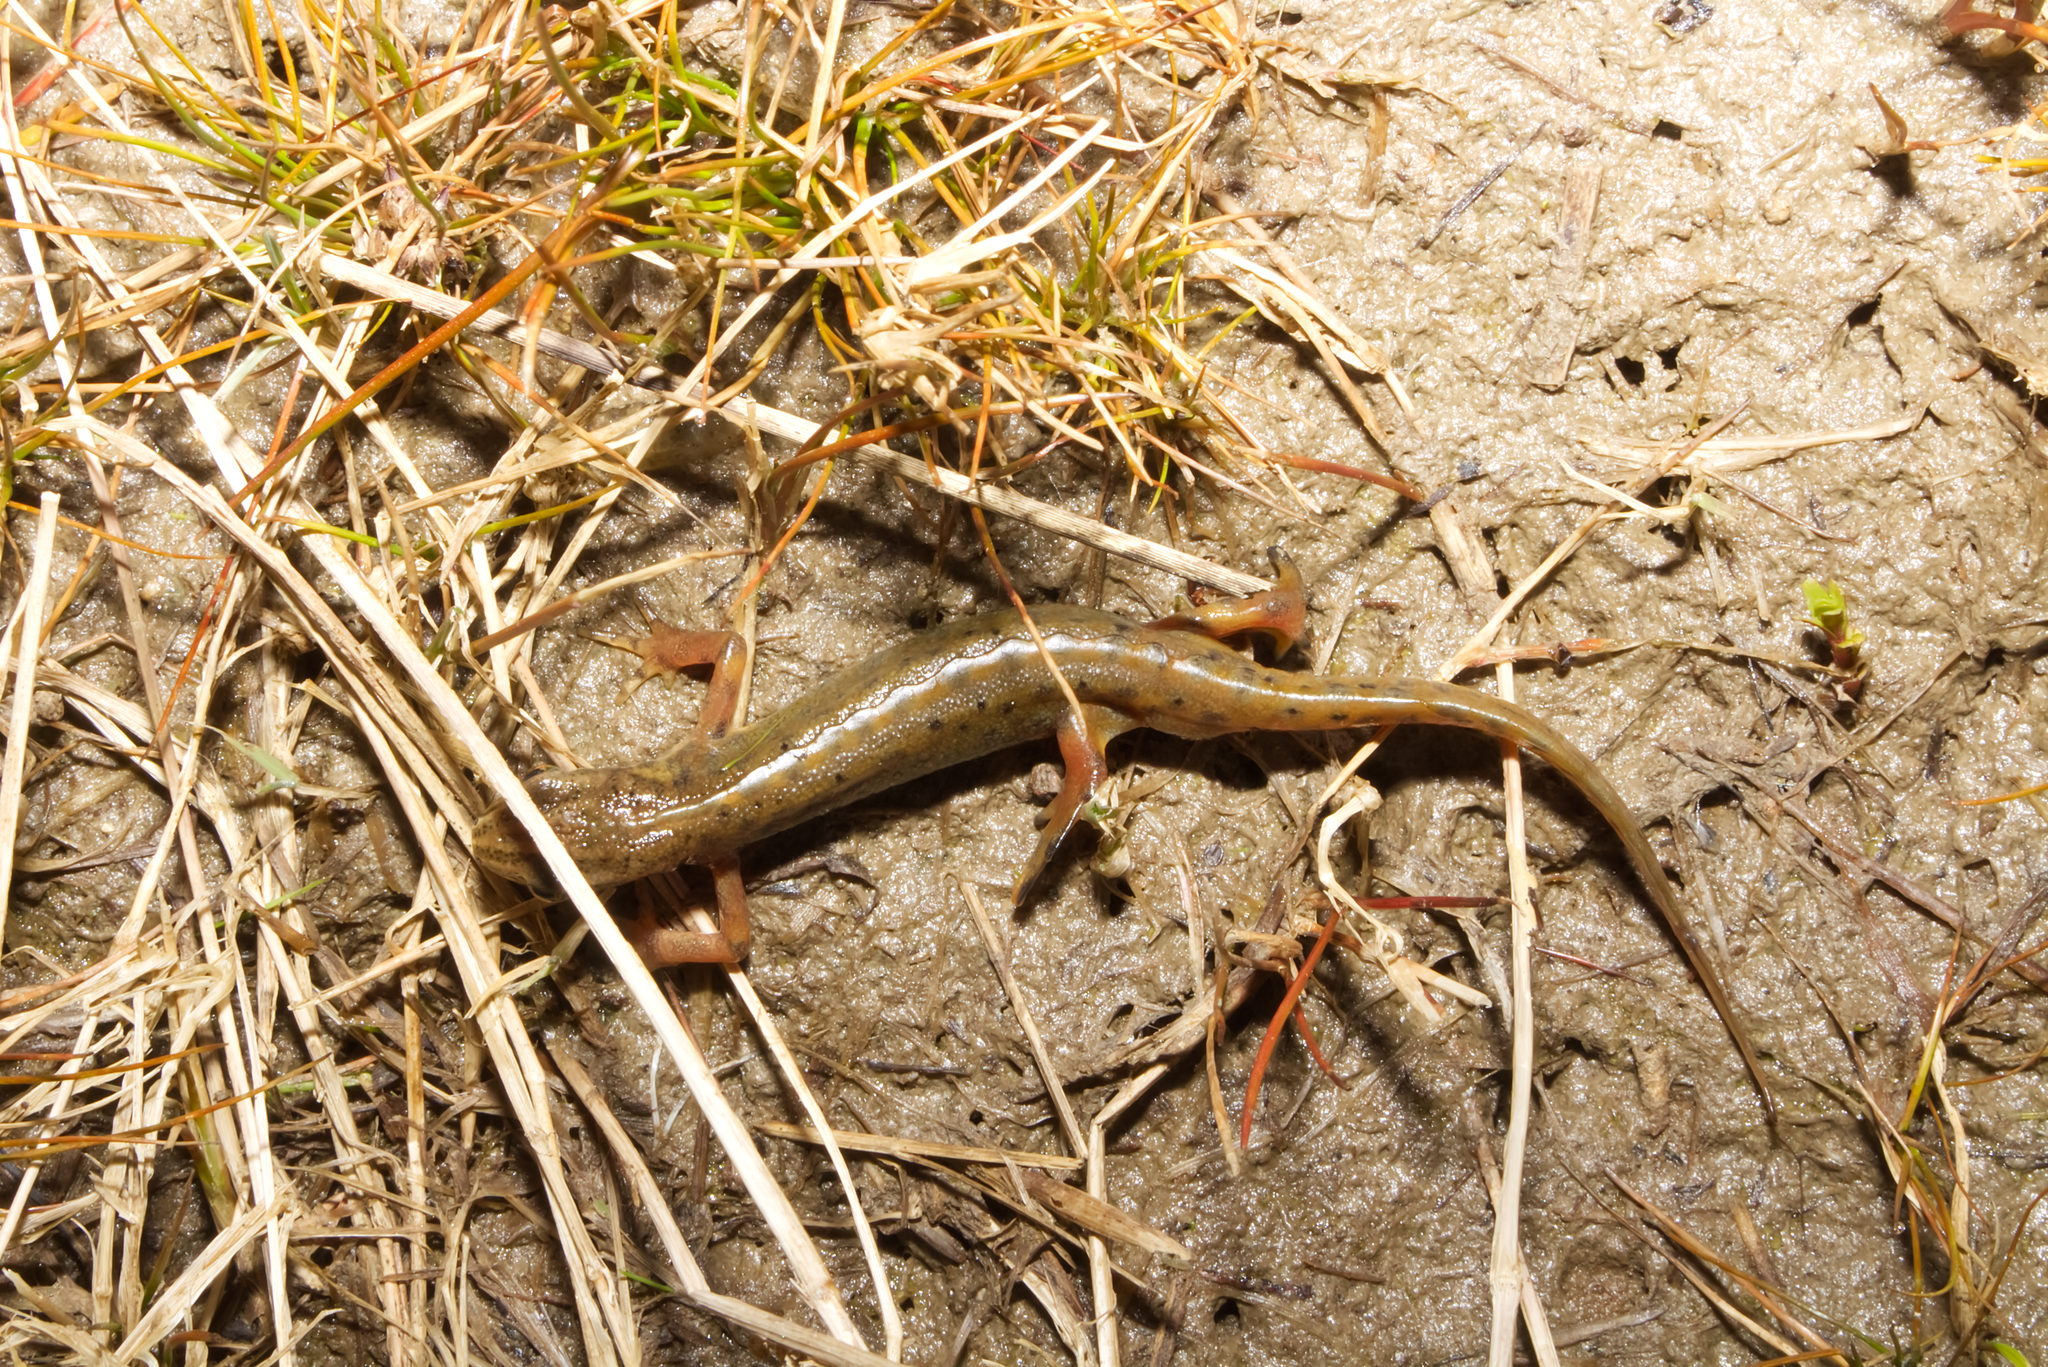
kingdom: Animalia
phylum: Chordata
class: Amphibia
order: Caudata
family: Salamandridae
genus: Lissotriton
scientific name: Lissotriton vulgaris
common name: Smooth newt
